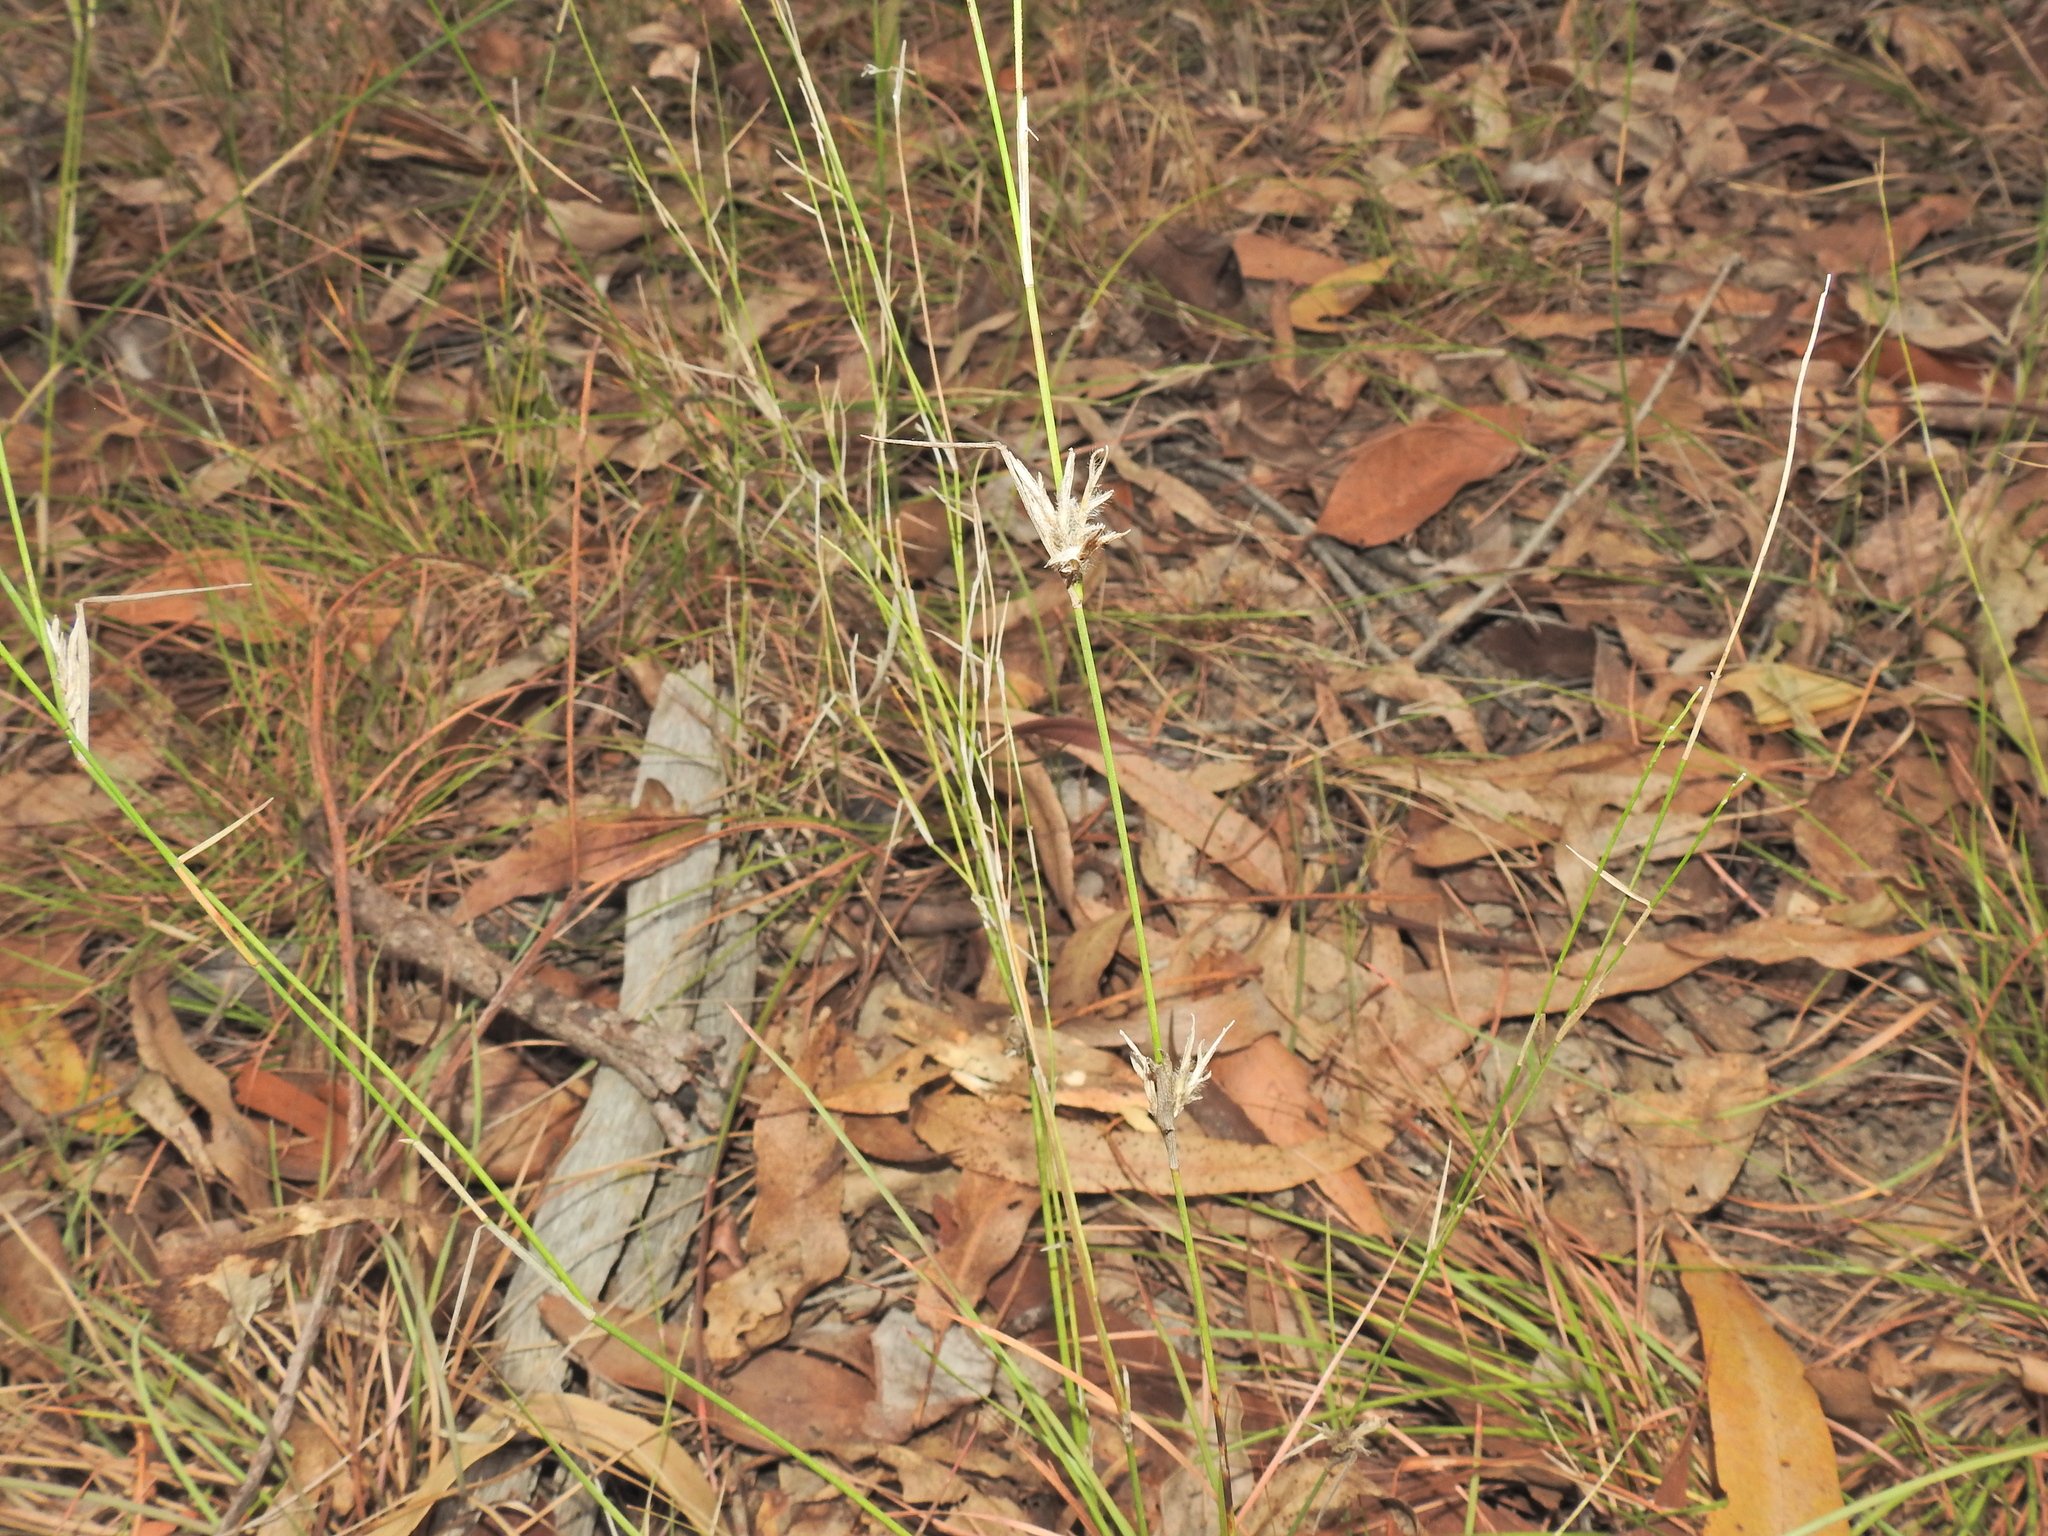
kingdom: Plantae
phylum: Tracheophyta
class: Liliopsida
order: Poales
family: Poaceae
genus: Entolasia
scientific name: Entolasia stricta
